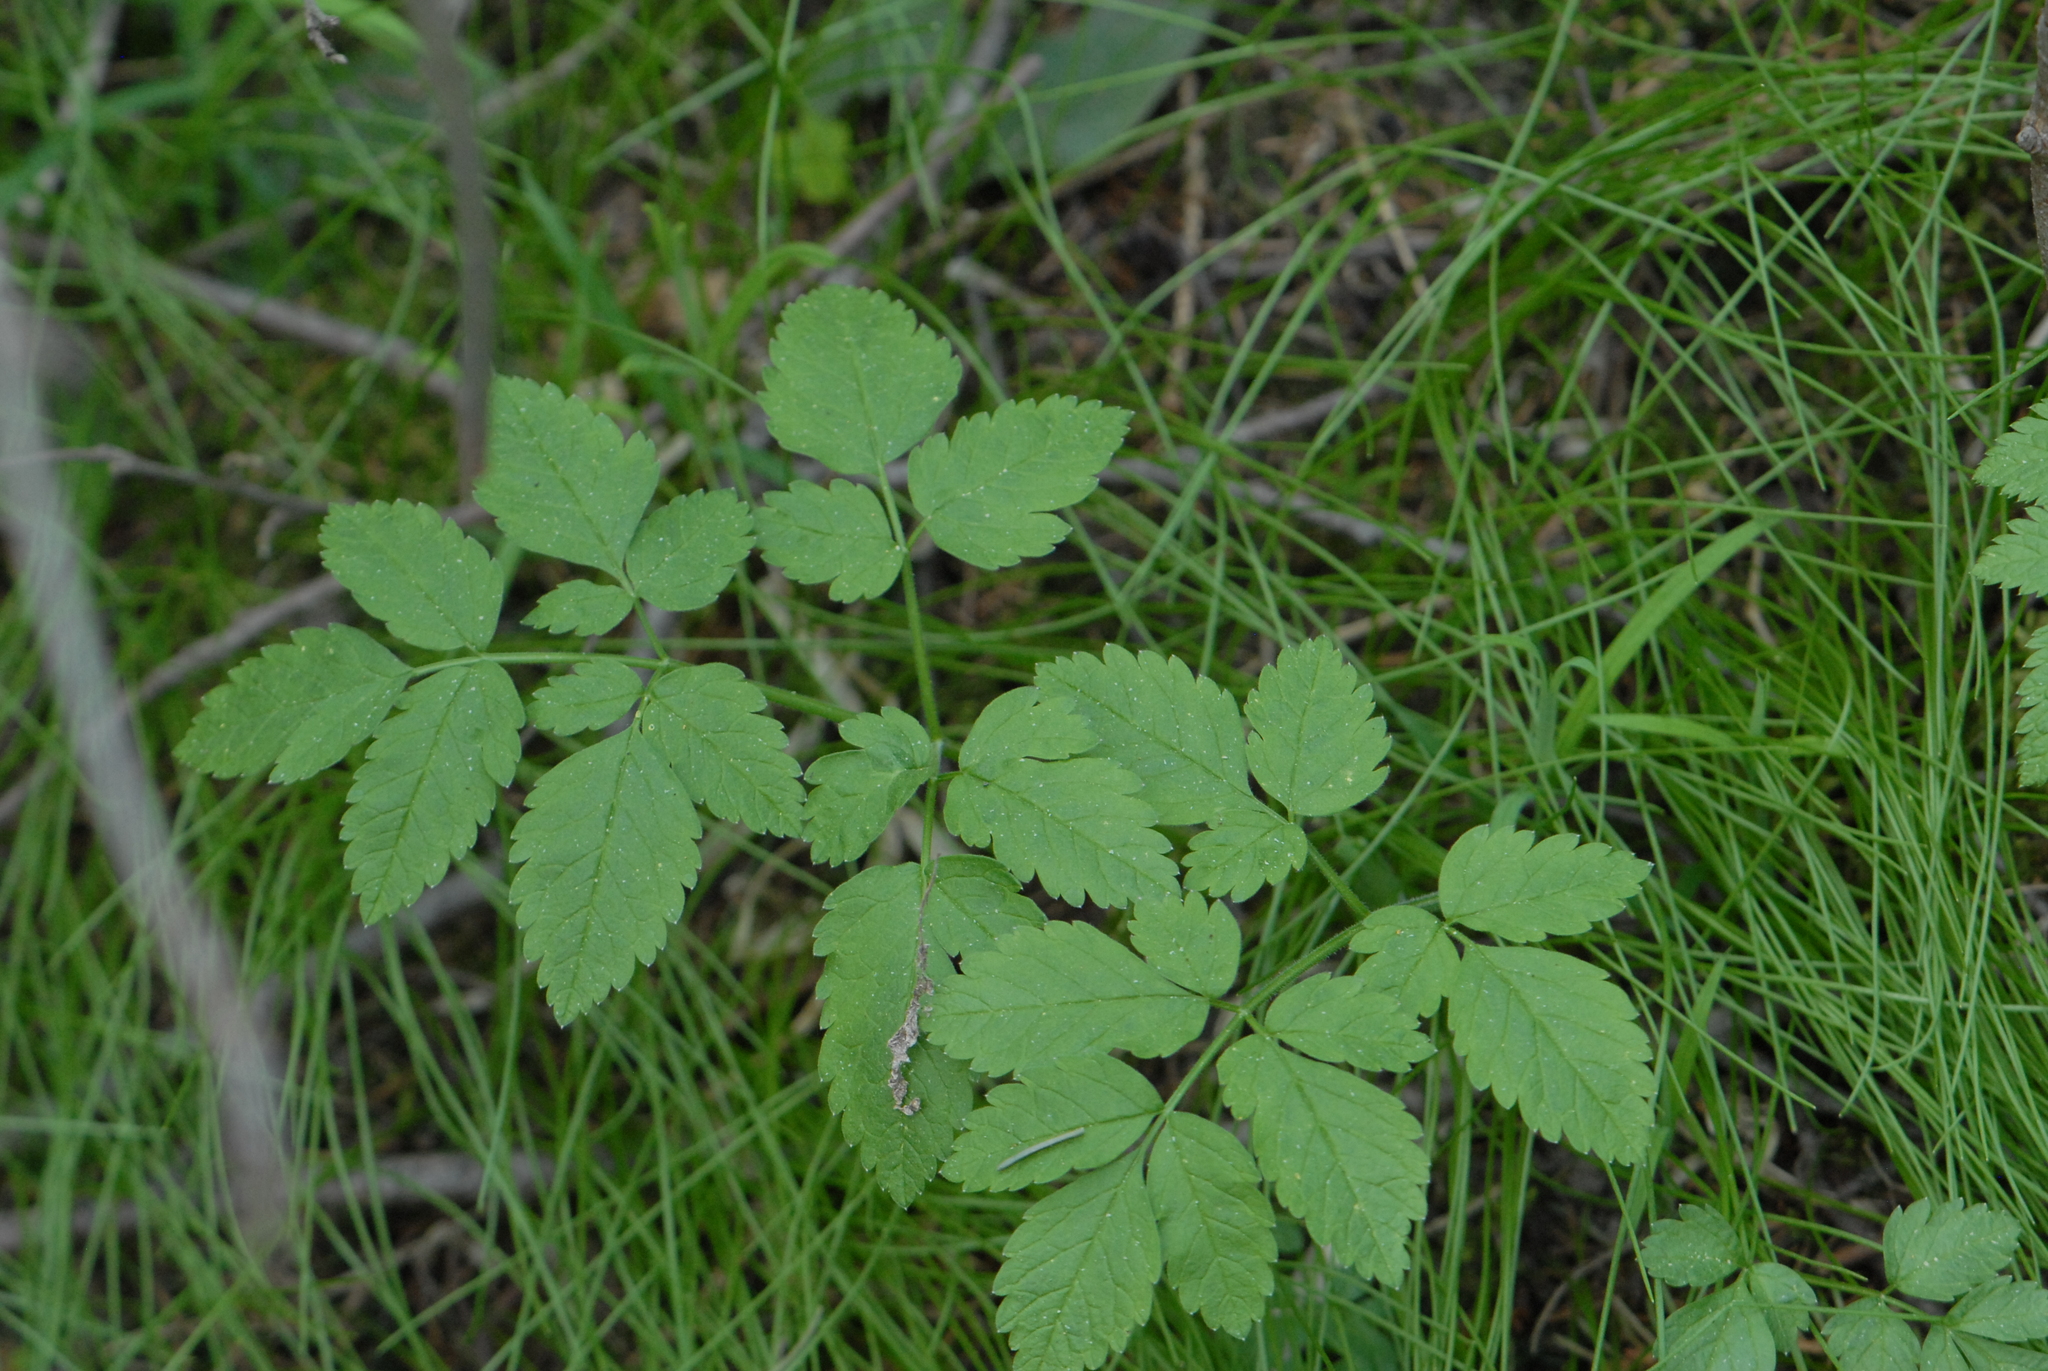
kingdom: Plantae
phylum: Tracheophyta
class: Magnoliopsida
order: Apiales
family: Apiaceae
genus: Aegopodium
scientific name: Aegopodium podagraria
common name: Ground-elder
